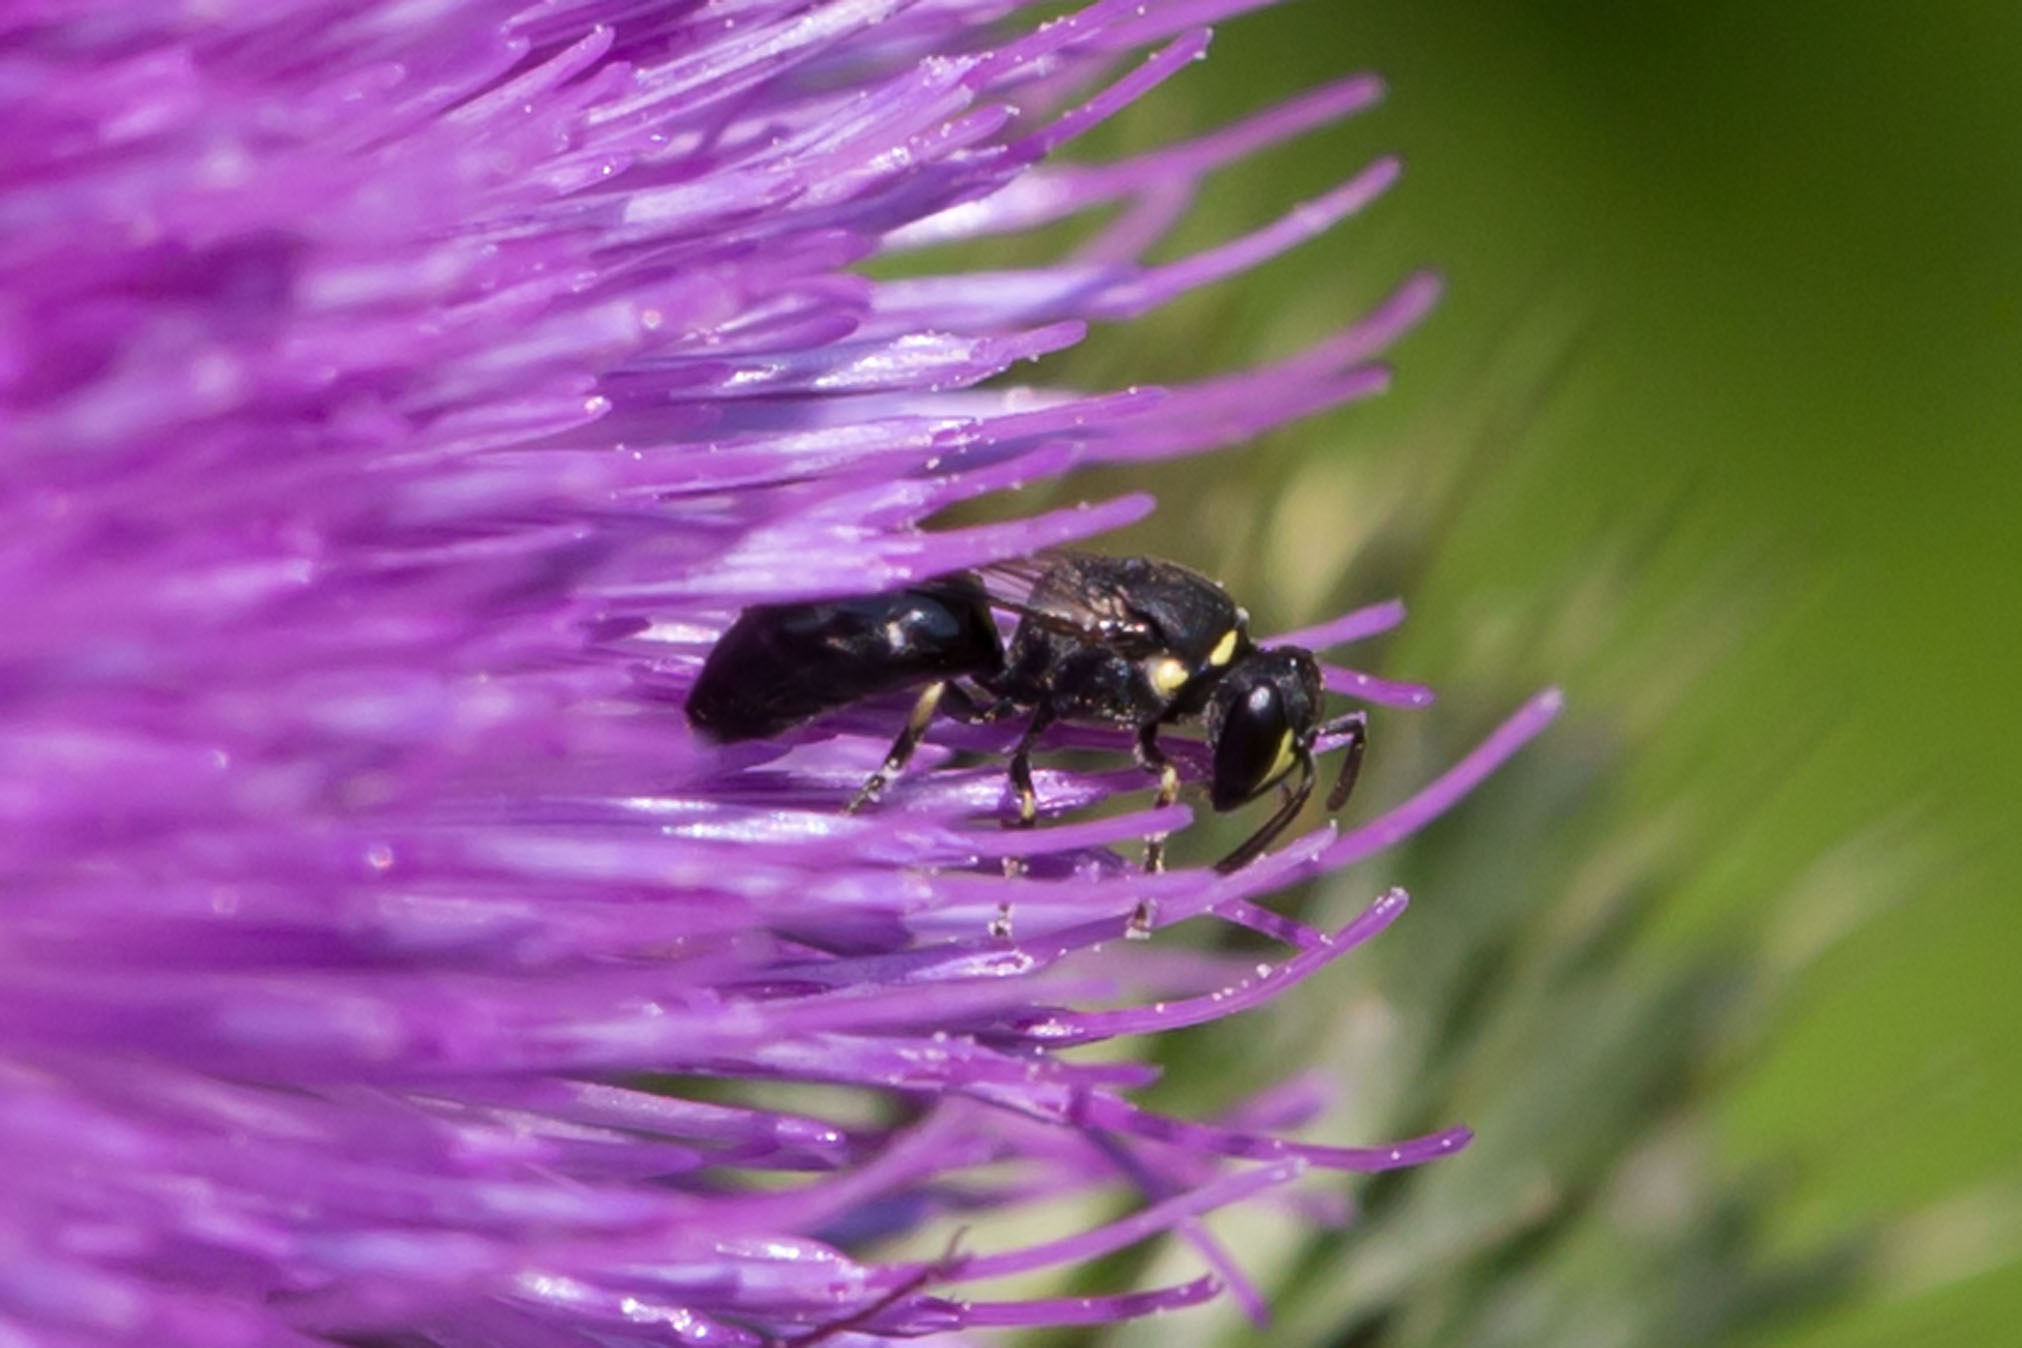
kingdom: Animalia
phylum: Arthropoda
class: Insecta
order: Hymenoptera
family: Colletidae
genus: Hylaeus
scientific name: Hylaeus modestus
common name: Yellow-faced bee
